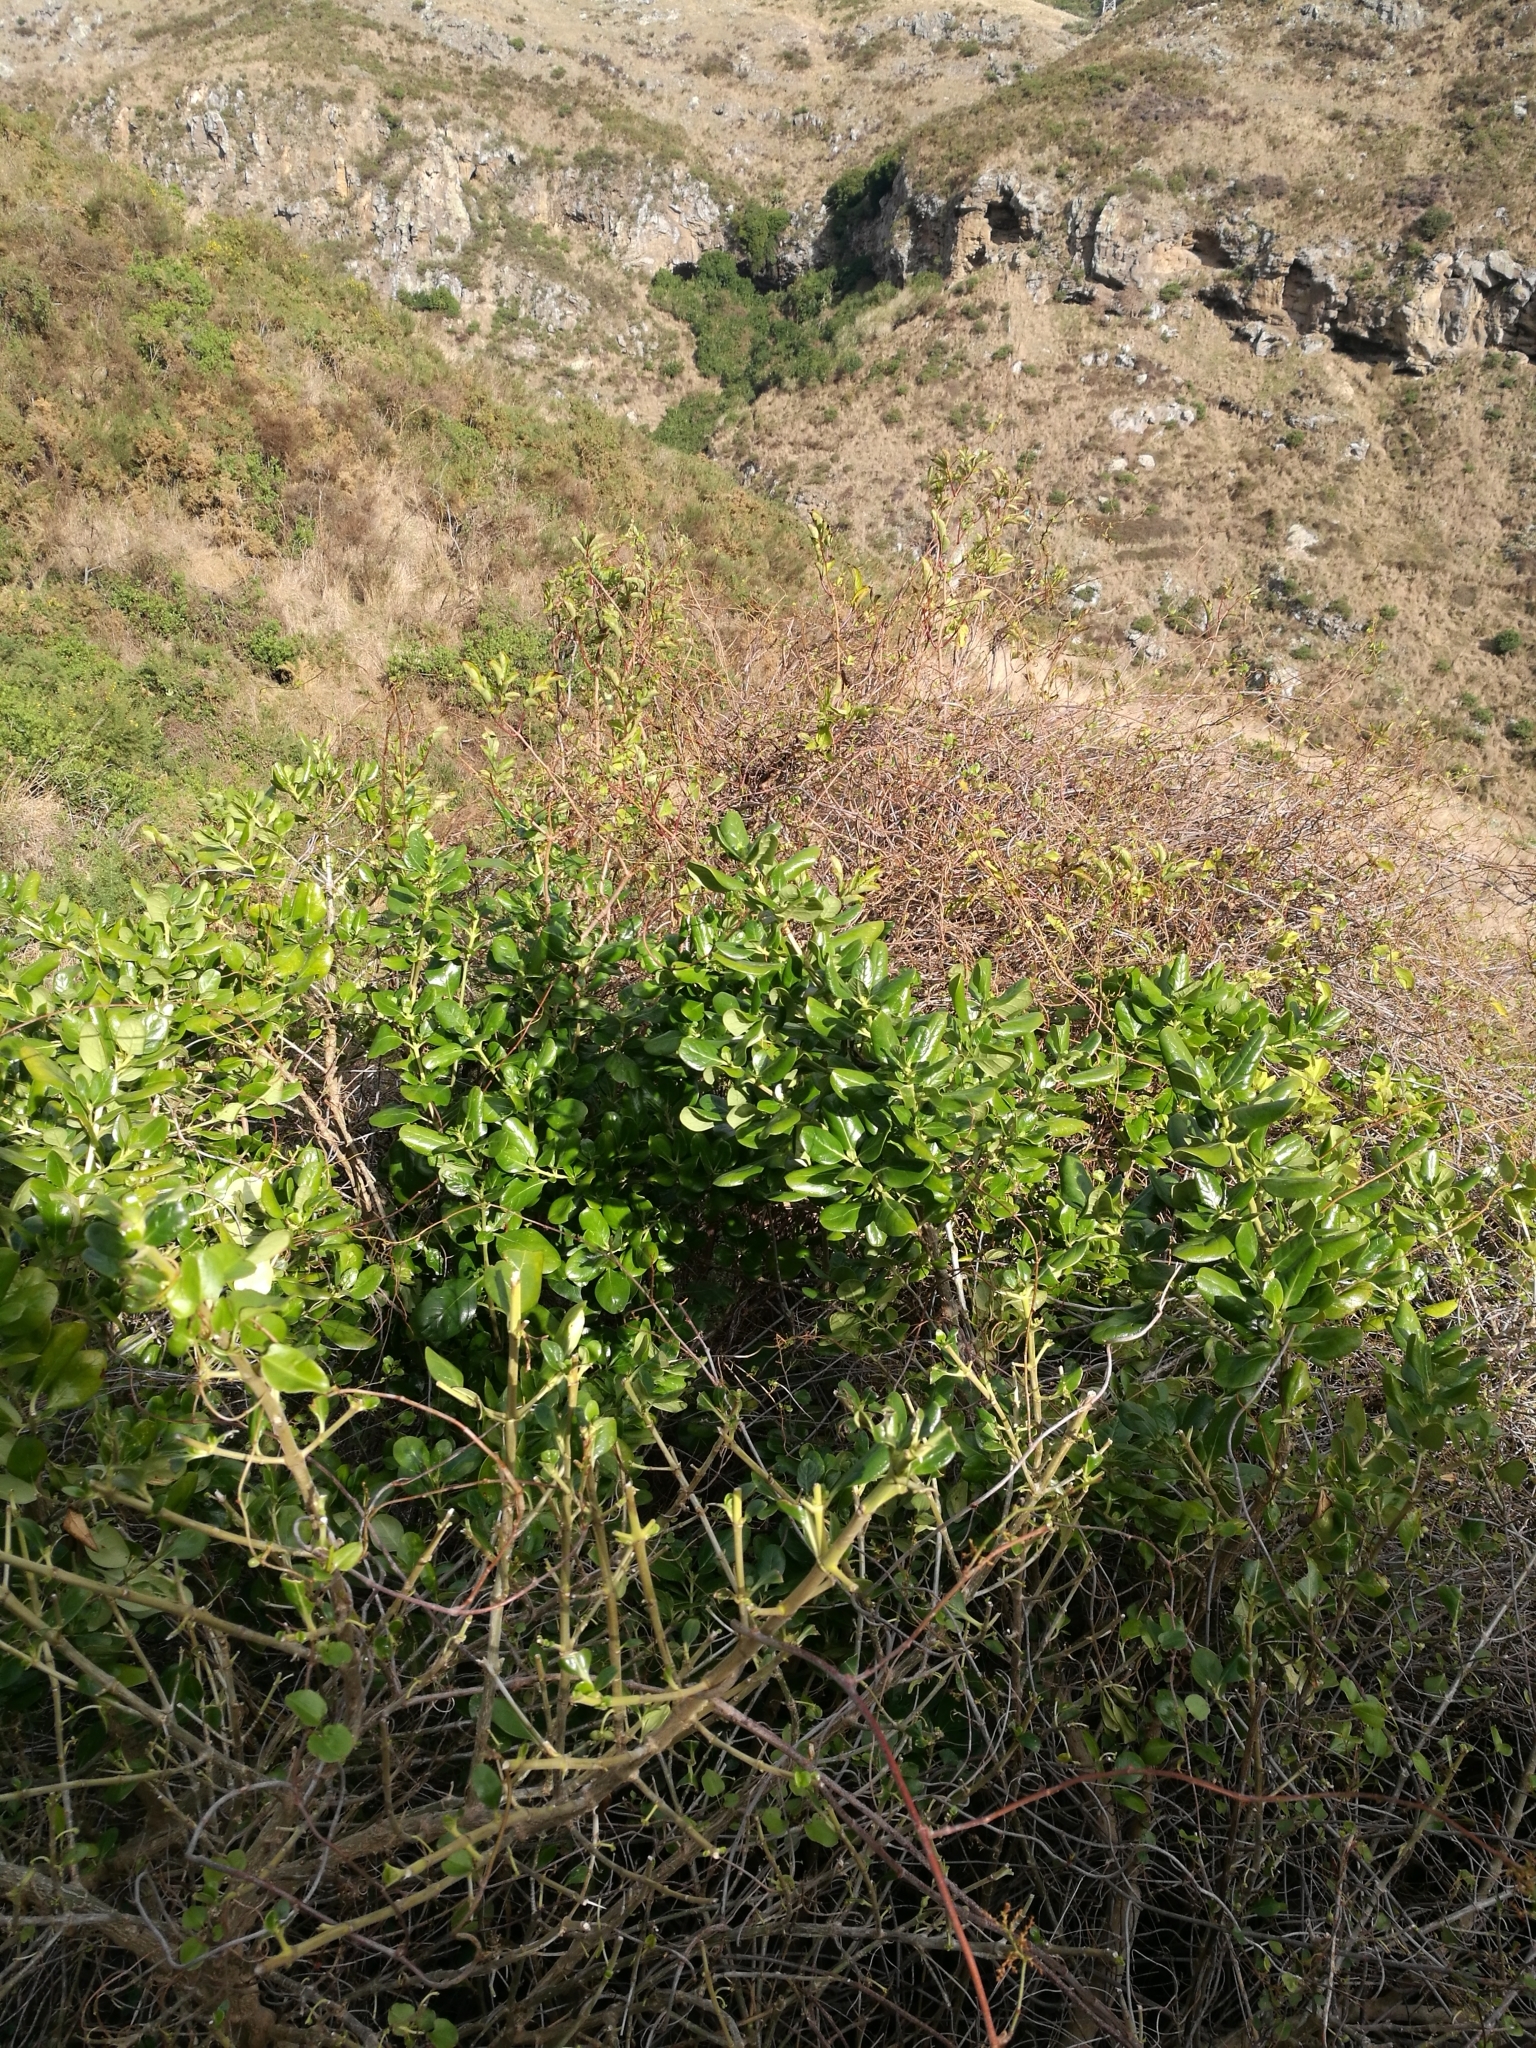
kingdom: Plantae
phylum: Tracheophyta
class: Magnoliopsida
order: Gentianales
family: Rubiaceae
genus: Coprosma
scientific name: Coprosma repens
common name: Tree bedstraw
